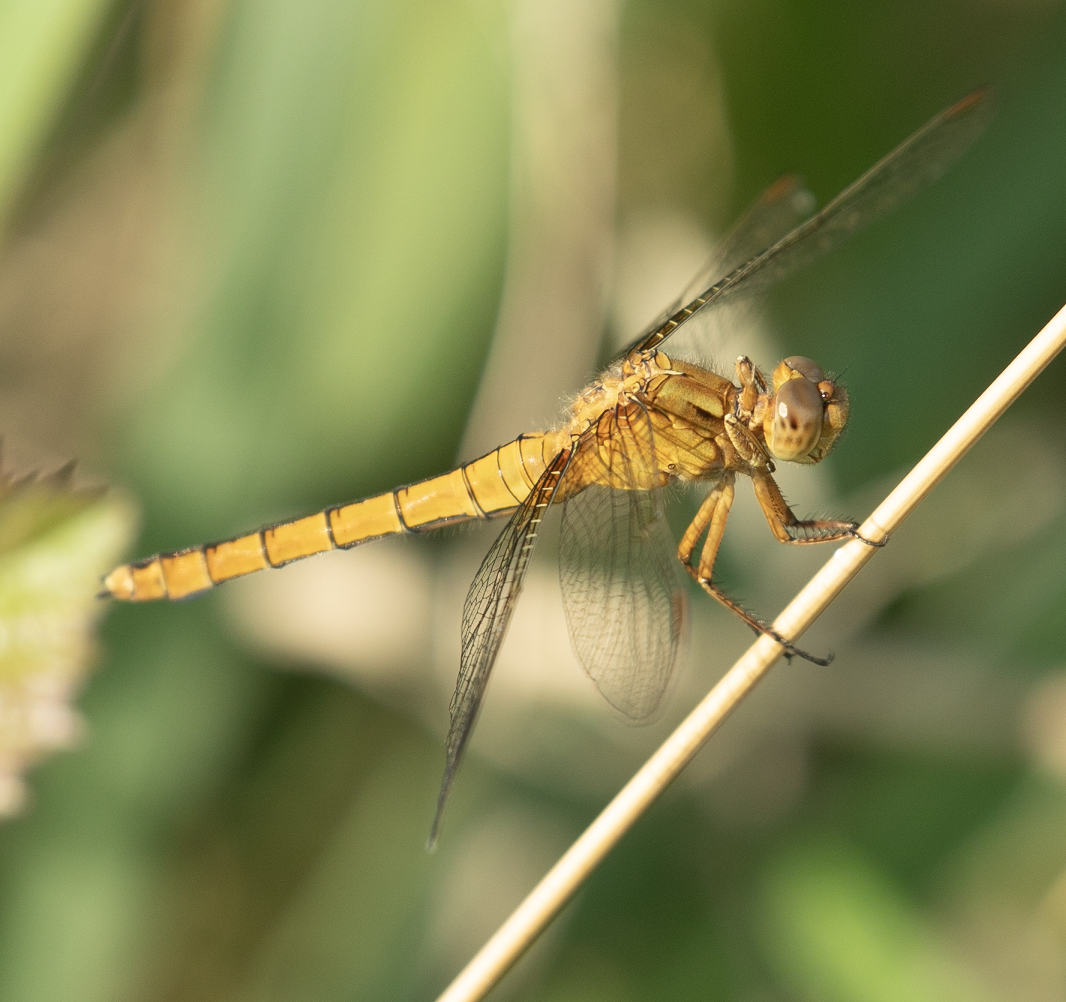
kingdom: Animalia
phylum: Arthropoda
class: Insecta
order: Odonata
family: Libellulidae
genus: Orthetrum
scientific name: Orthetrum coerulescens
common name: Keeled skimmer
